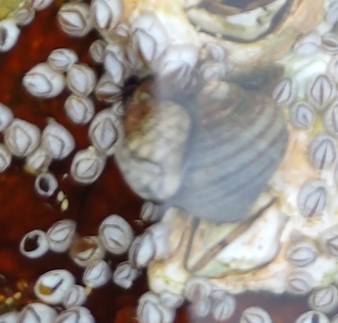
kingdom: Animalia
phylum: Mollusca
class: Gastropoda
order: Littorinimorpha
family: Littorinidae
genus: Littorina
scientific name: Littorina saxatilis
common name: Black-lined periwinkle
